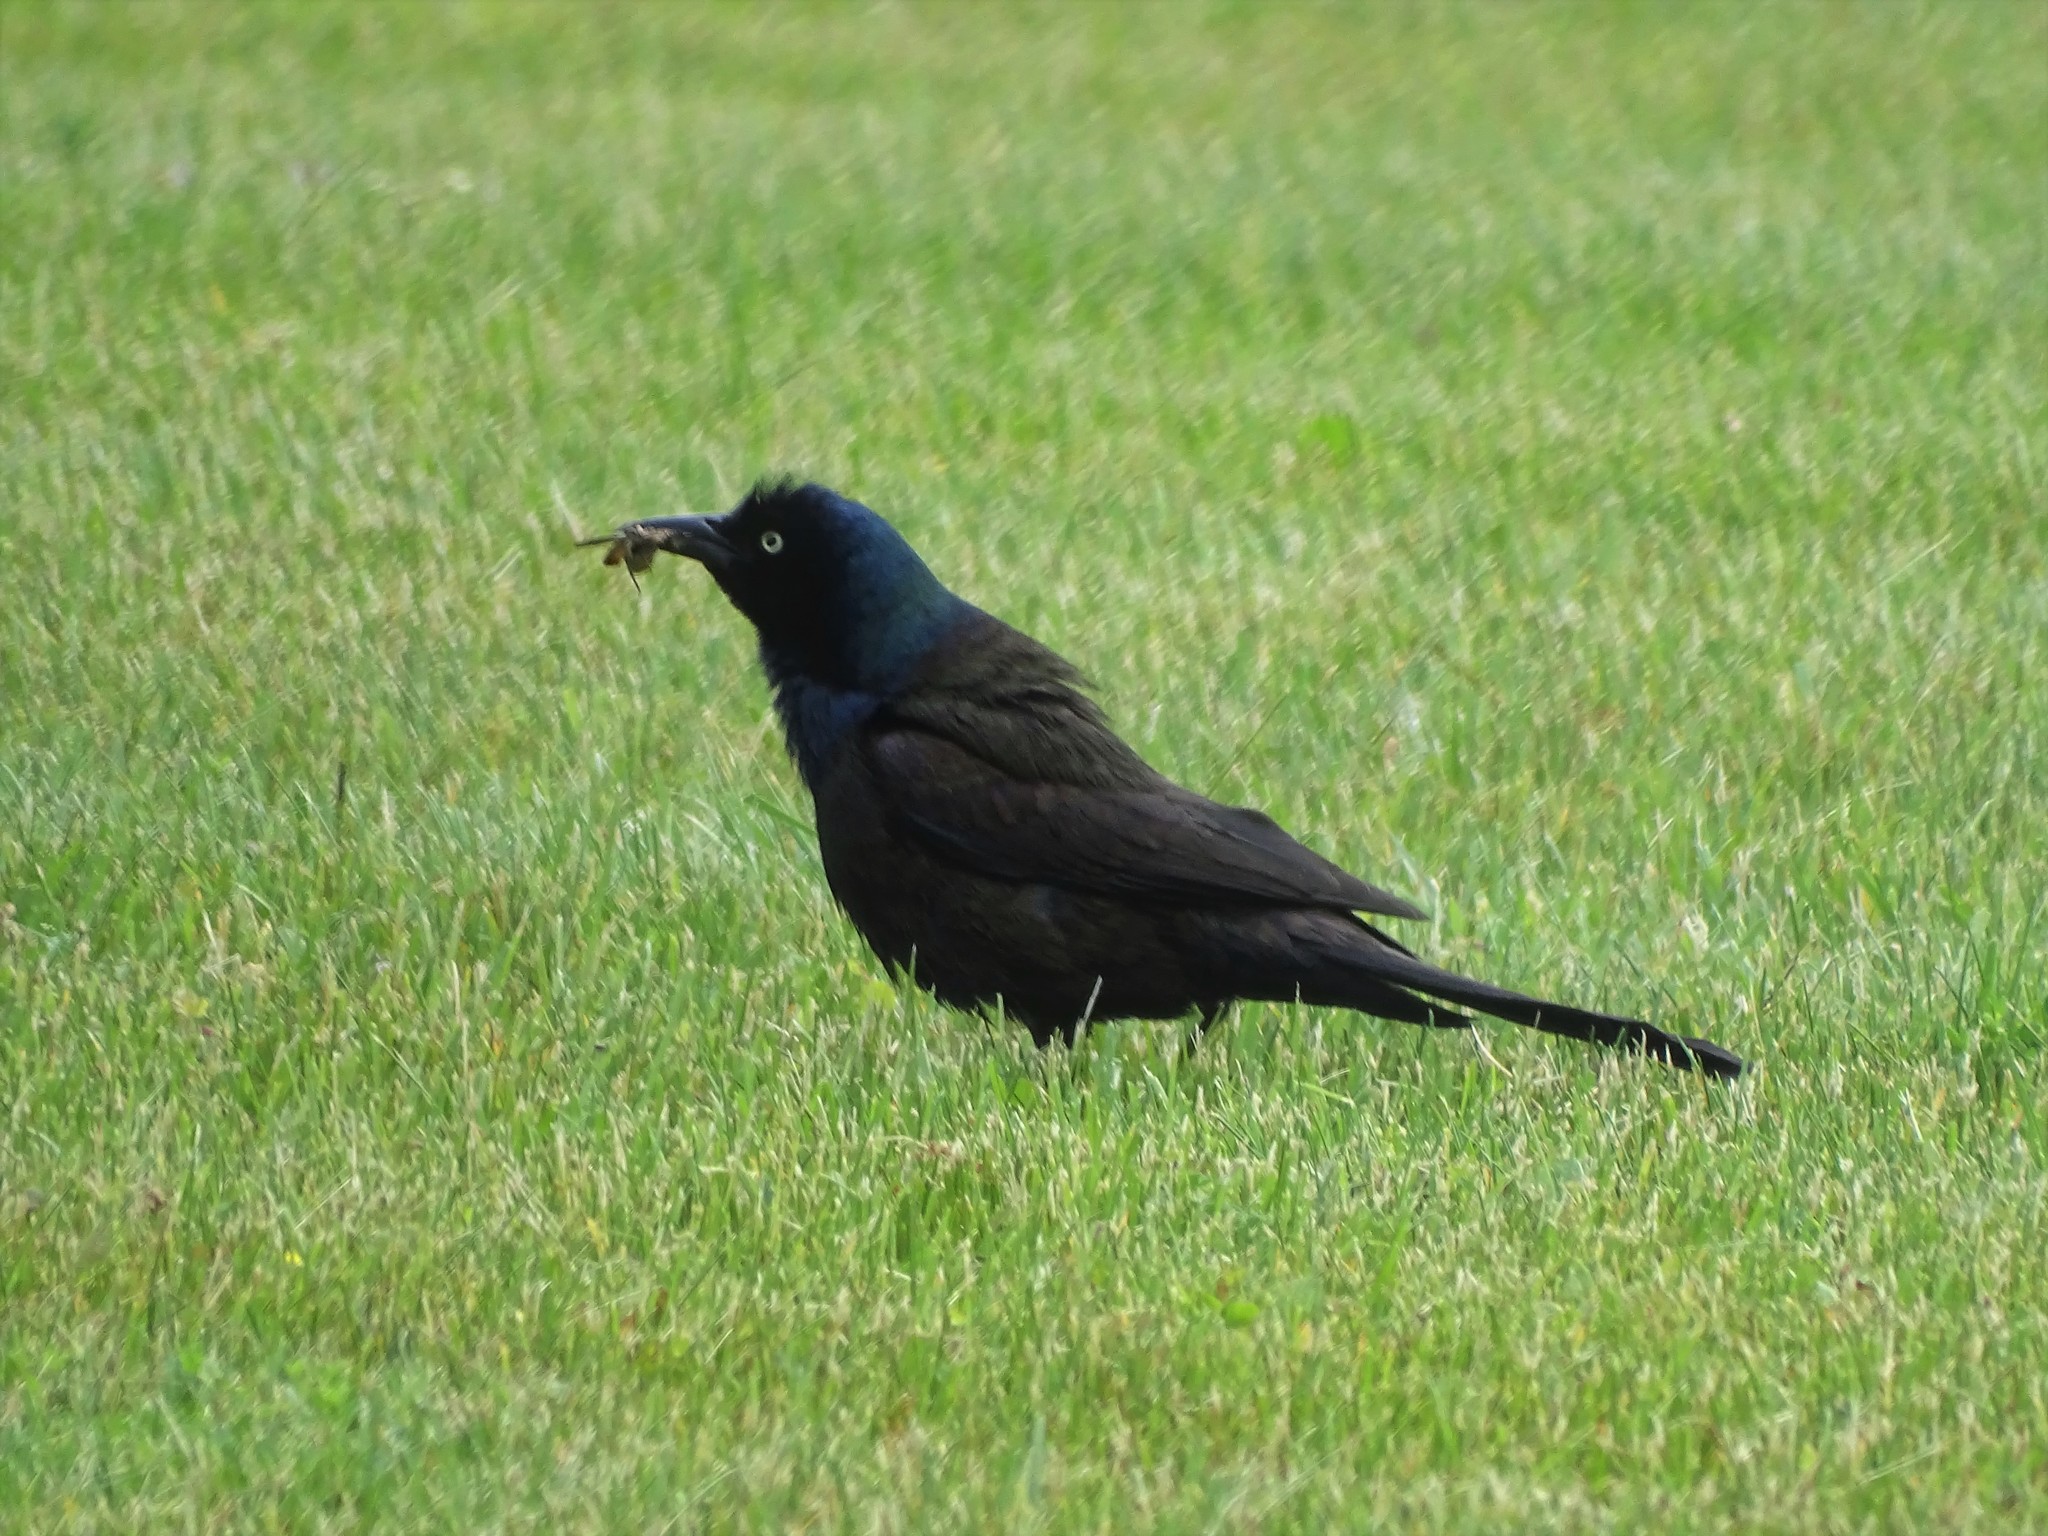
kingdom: Animalia
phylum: Chordata
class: Aves
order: Passeriformes
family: Icteridae
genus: Quiscalus
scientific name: Quiscalus quiscula
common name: Common grackle
